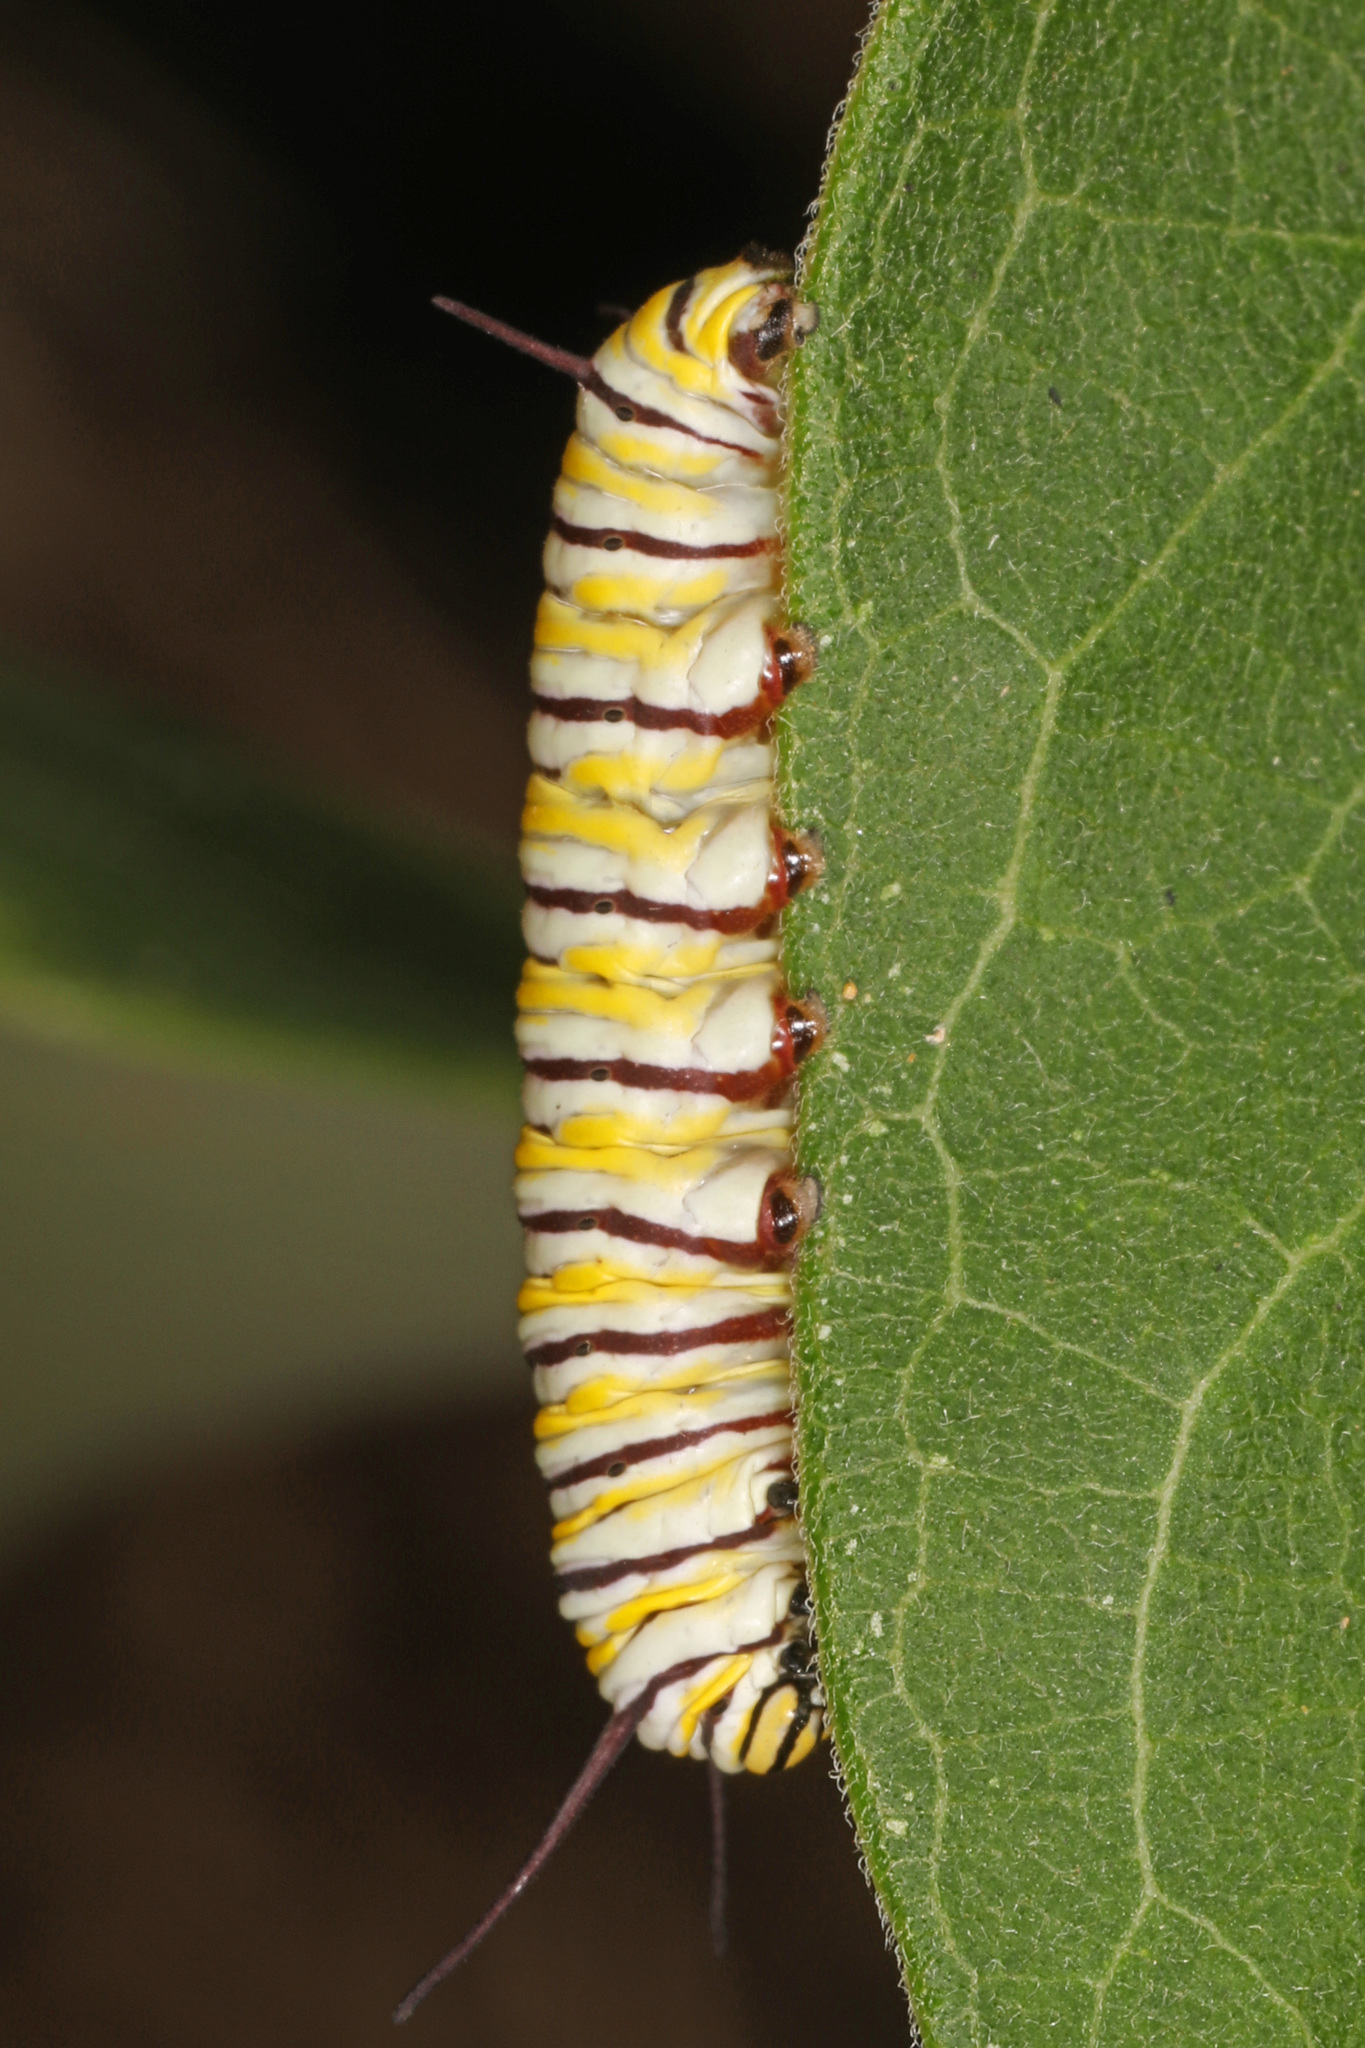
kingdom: Animalia
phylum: Arthropoda
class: Insecta
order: Lepidoptera
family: Nymphalidae
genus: Danaus
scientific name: Danaus plexippus
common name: Monarch
